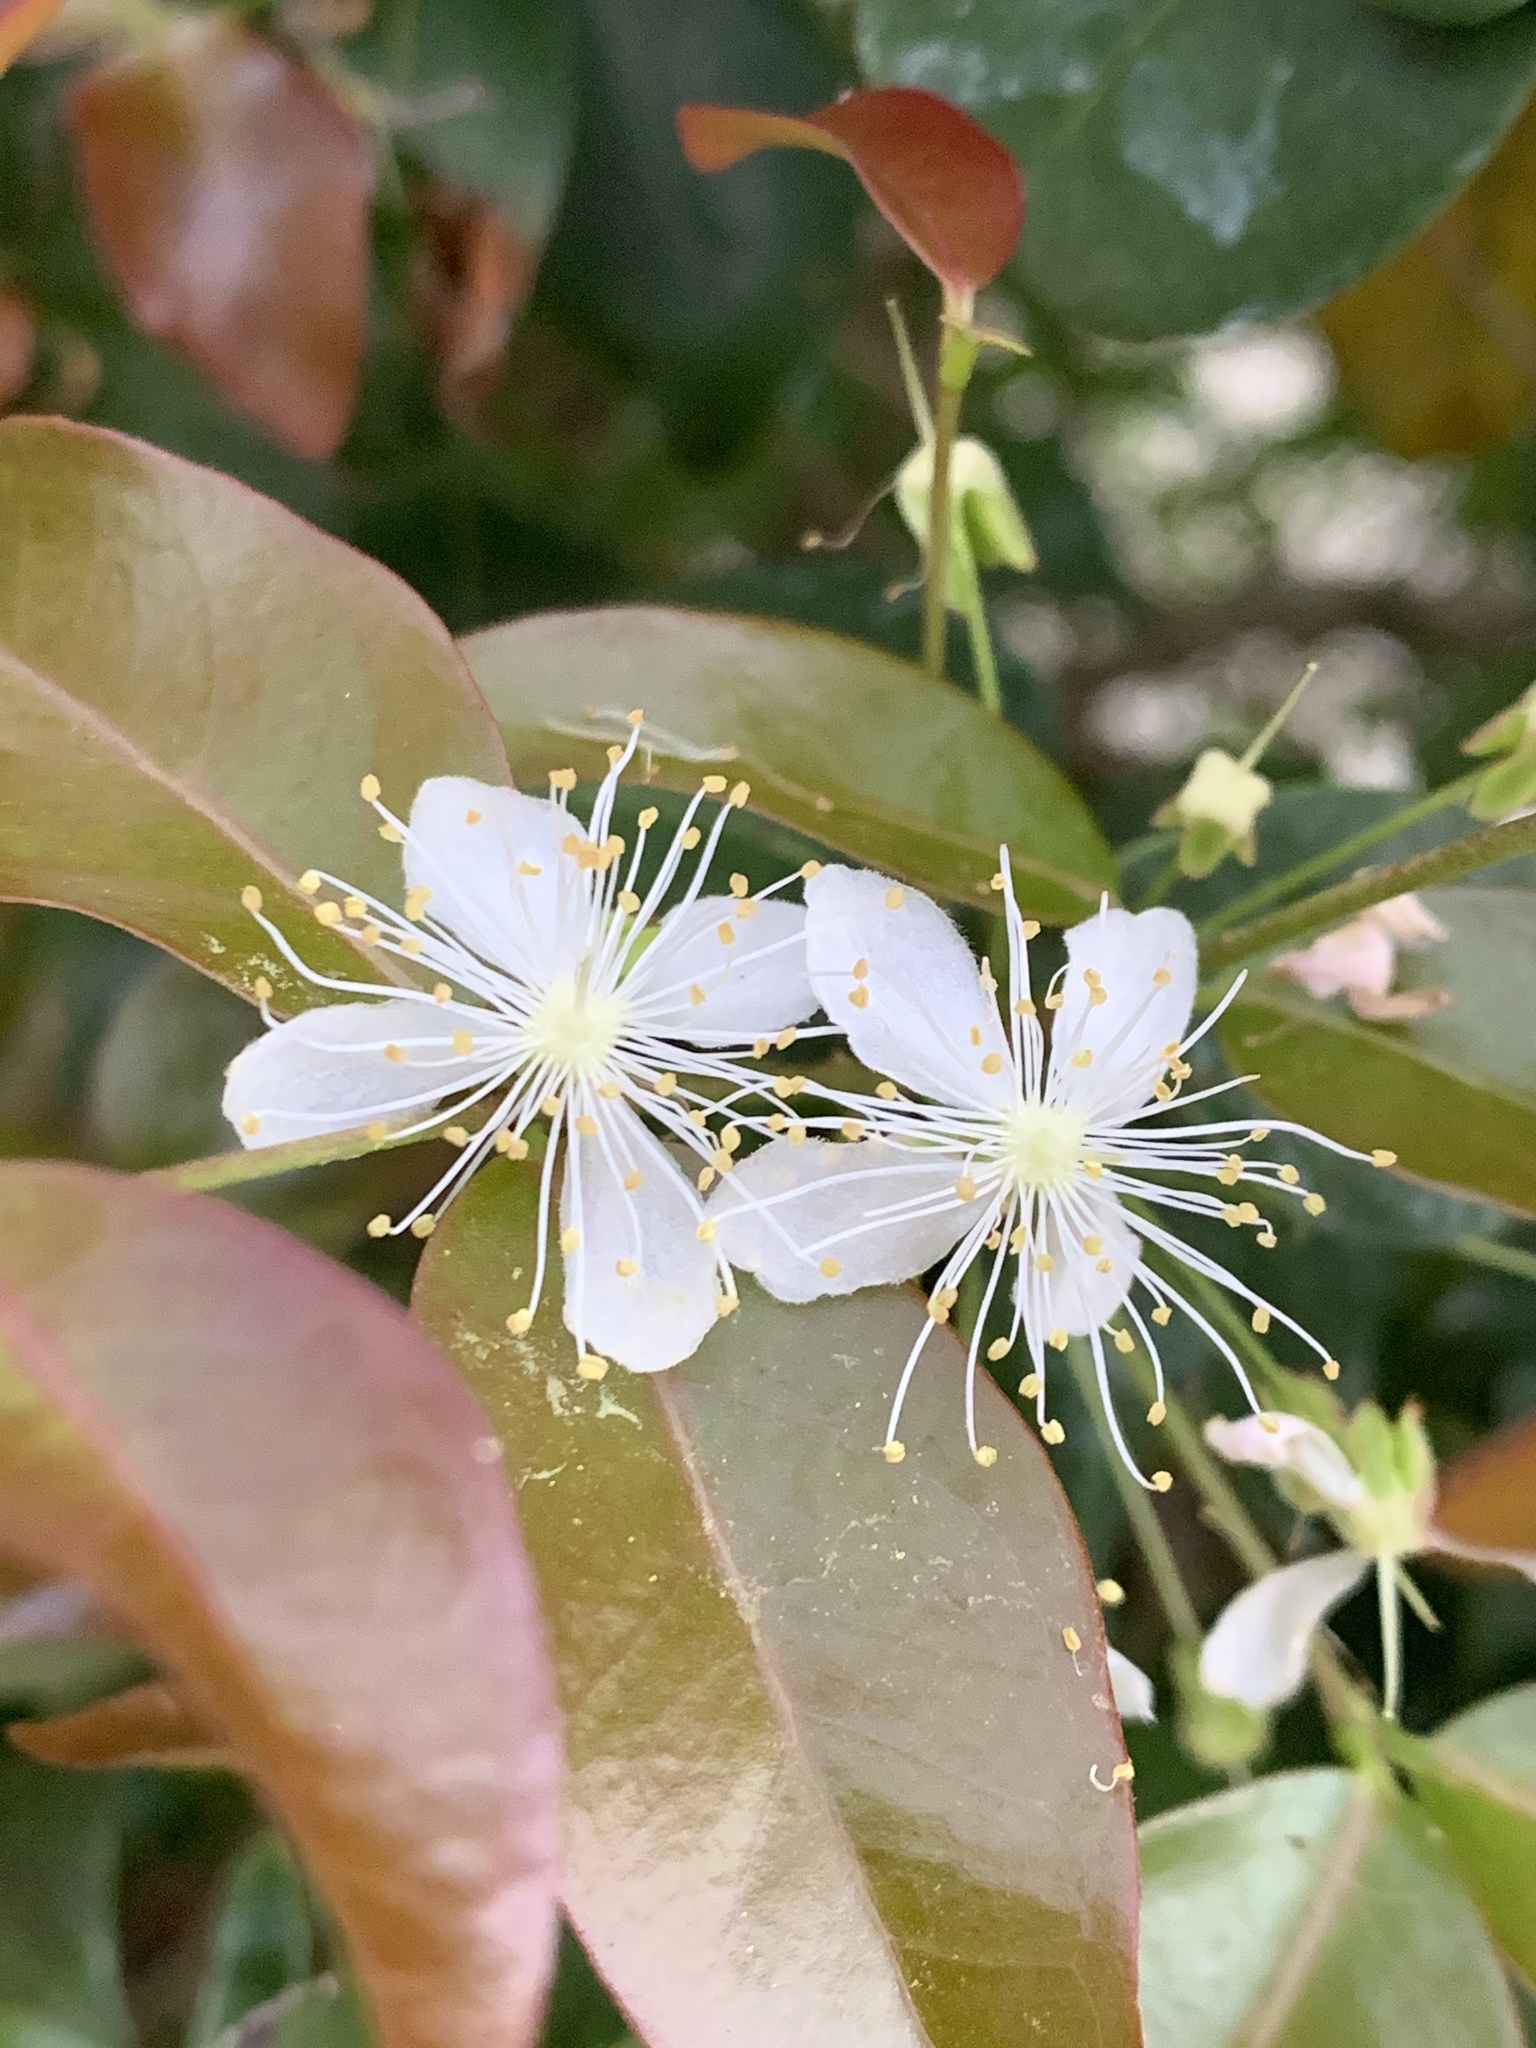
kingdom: Plantae
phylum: Tracheophyta
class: Magnoliopsida
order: Myrtales
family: Myrtaceae
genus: Eugenia
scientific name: Eugenia uniflora
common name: Surinam cherry
